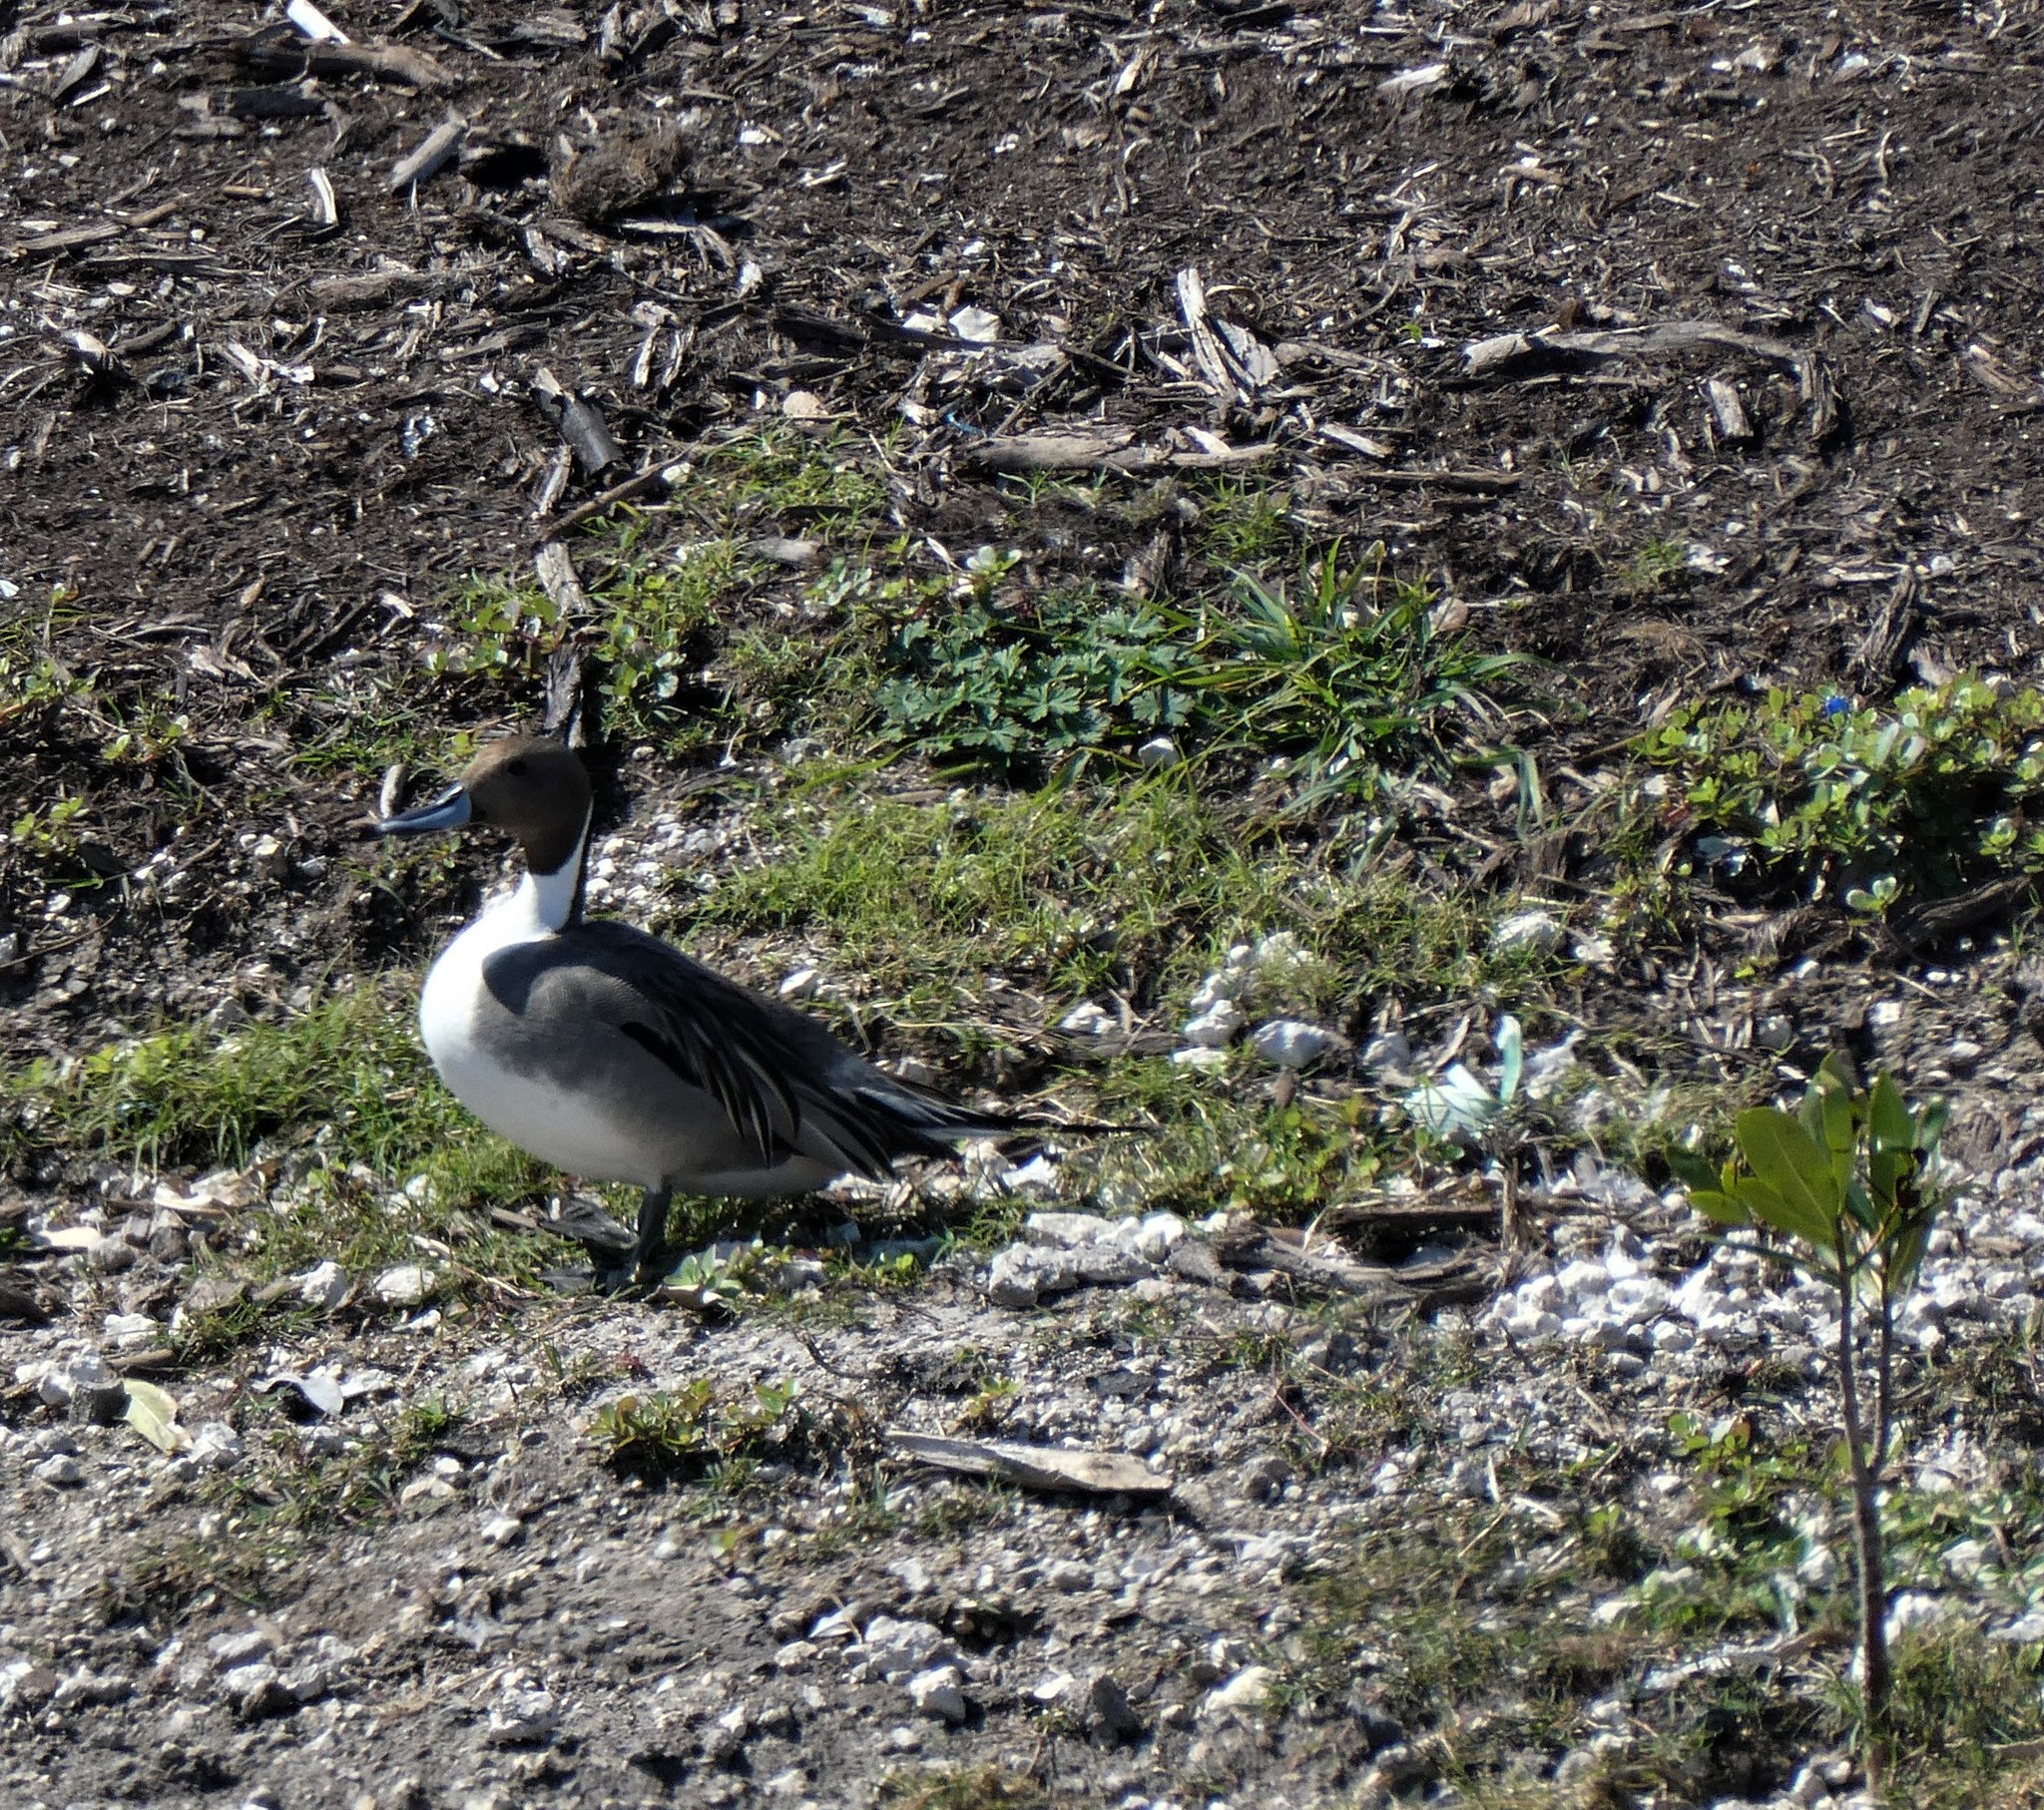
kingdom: Animalia
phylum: Chordata
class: Aves
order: Anseriformes
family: Anatidae
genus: Anas
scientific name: Anas acuta
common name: Northern pintail
